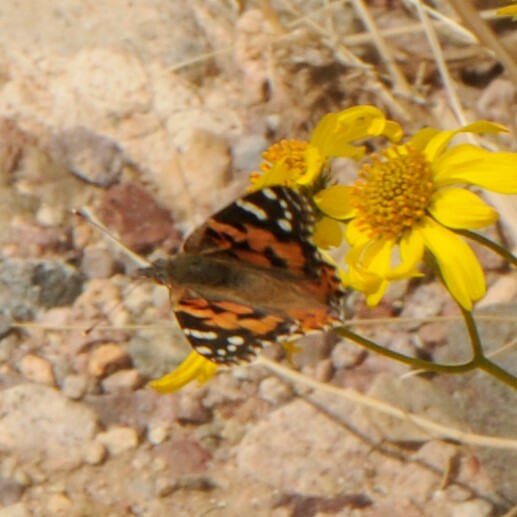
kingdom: Animalia
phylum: Arthropoda
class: Insecta
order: Lepidoptera
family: Nymphalidae
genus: Vanessa
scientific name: Vanessa cardui
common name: Painted lady
